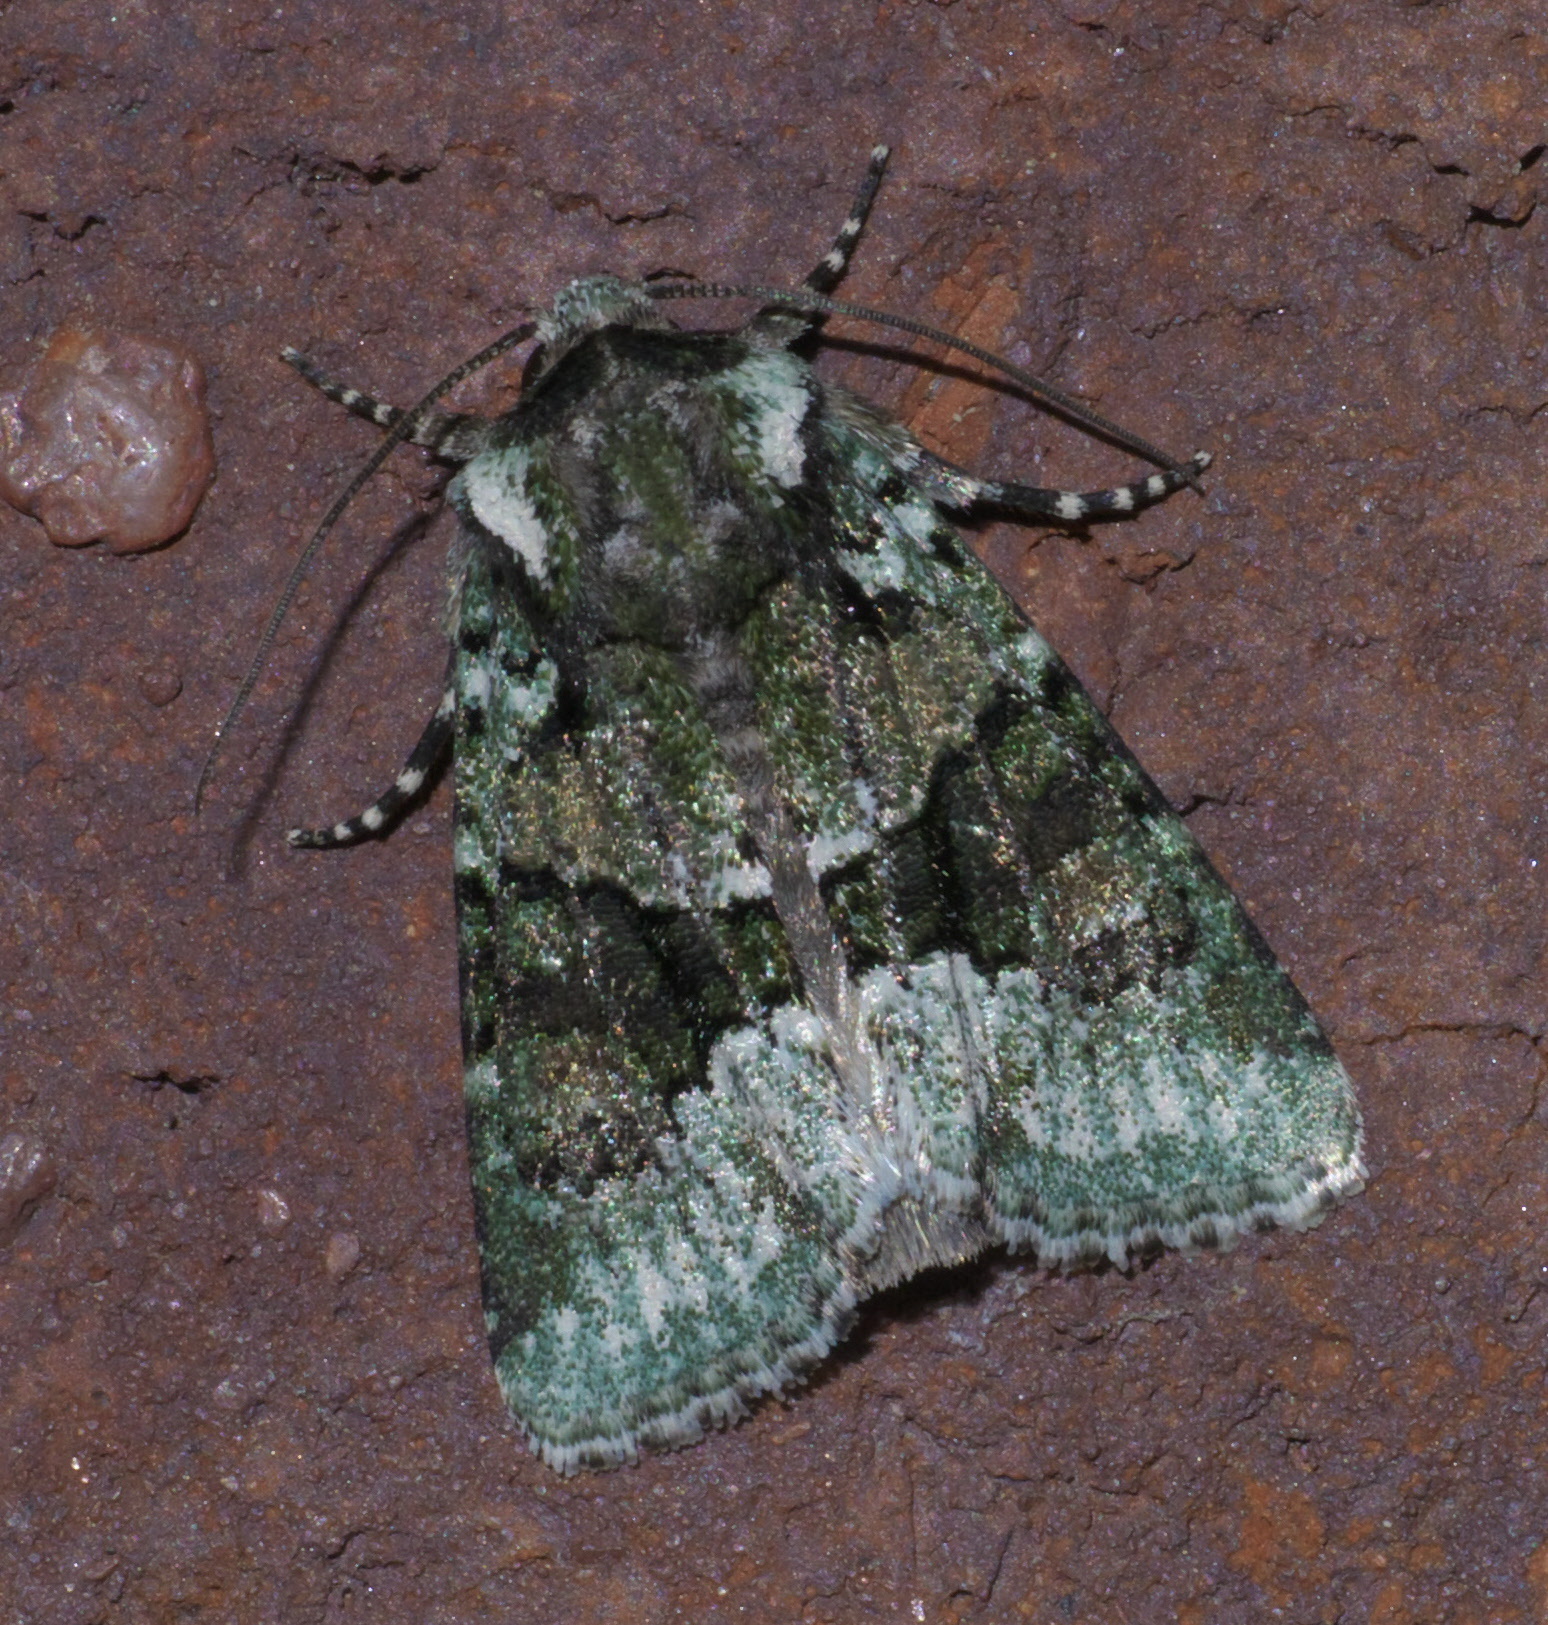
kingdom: Animalia
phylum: Arthropoda
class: Insecta
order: Lepidoptera
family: Noctuidae
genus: Lacinipolia
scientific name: Lacinipolia explicata
